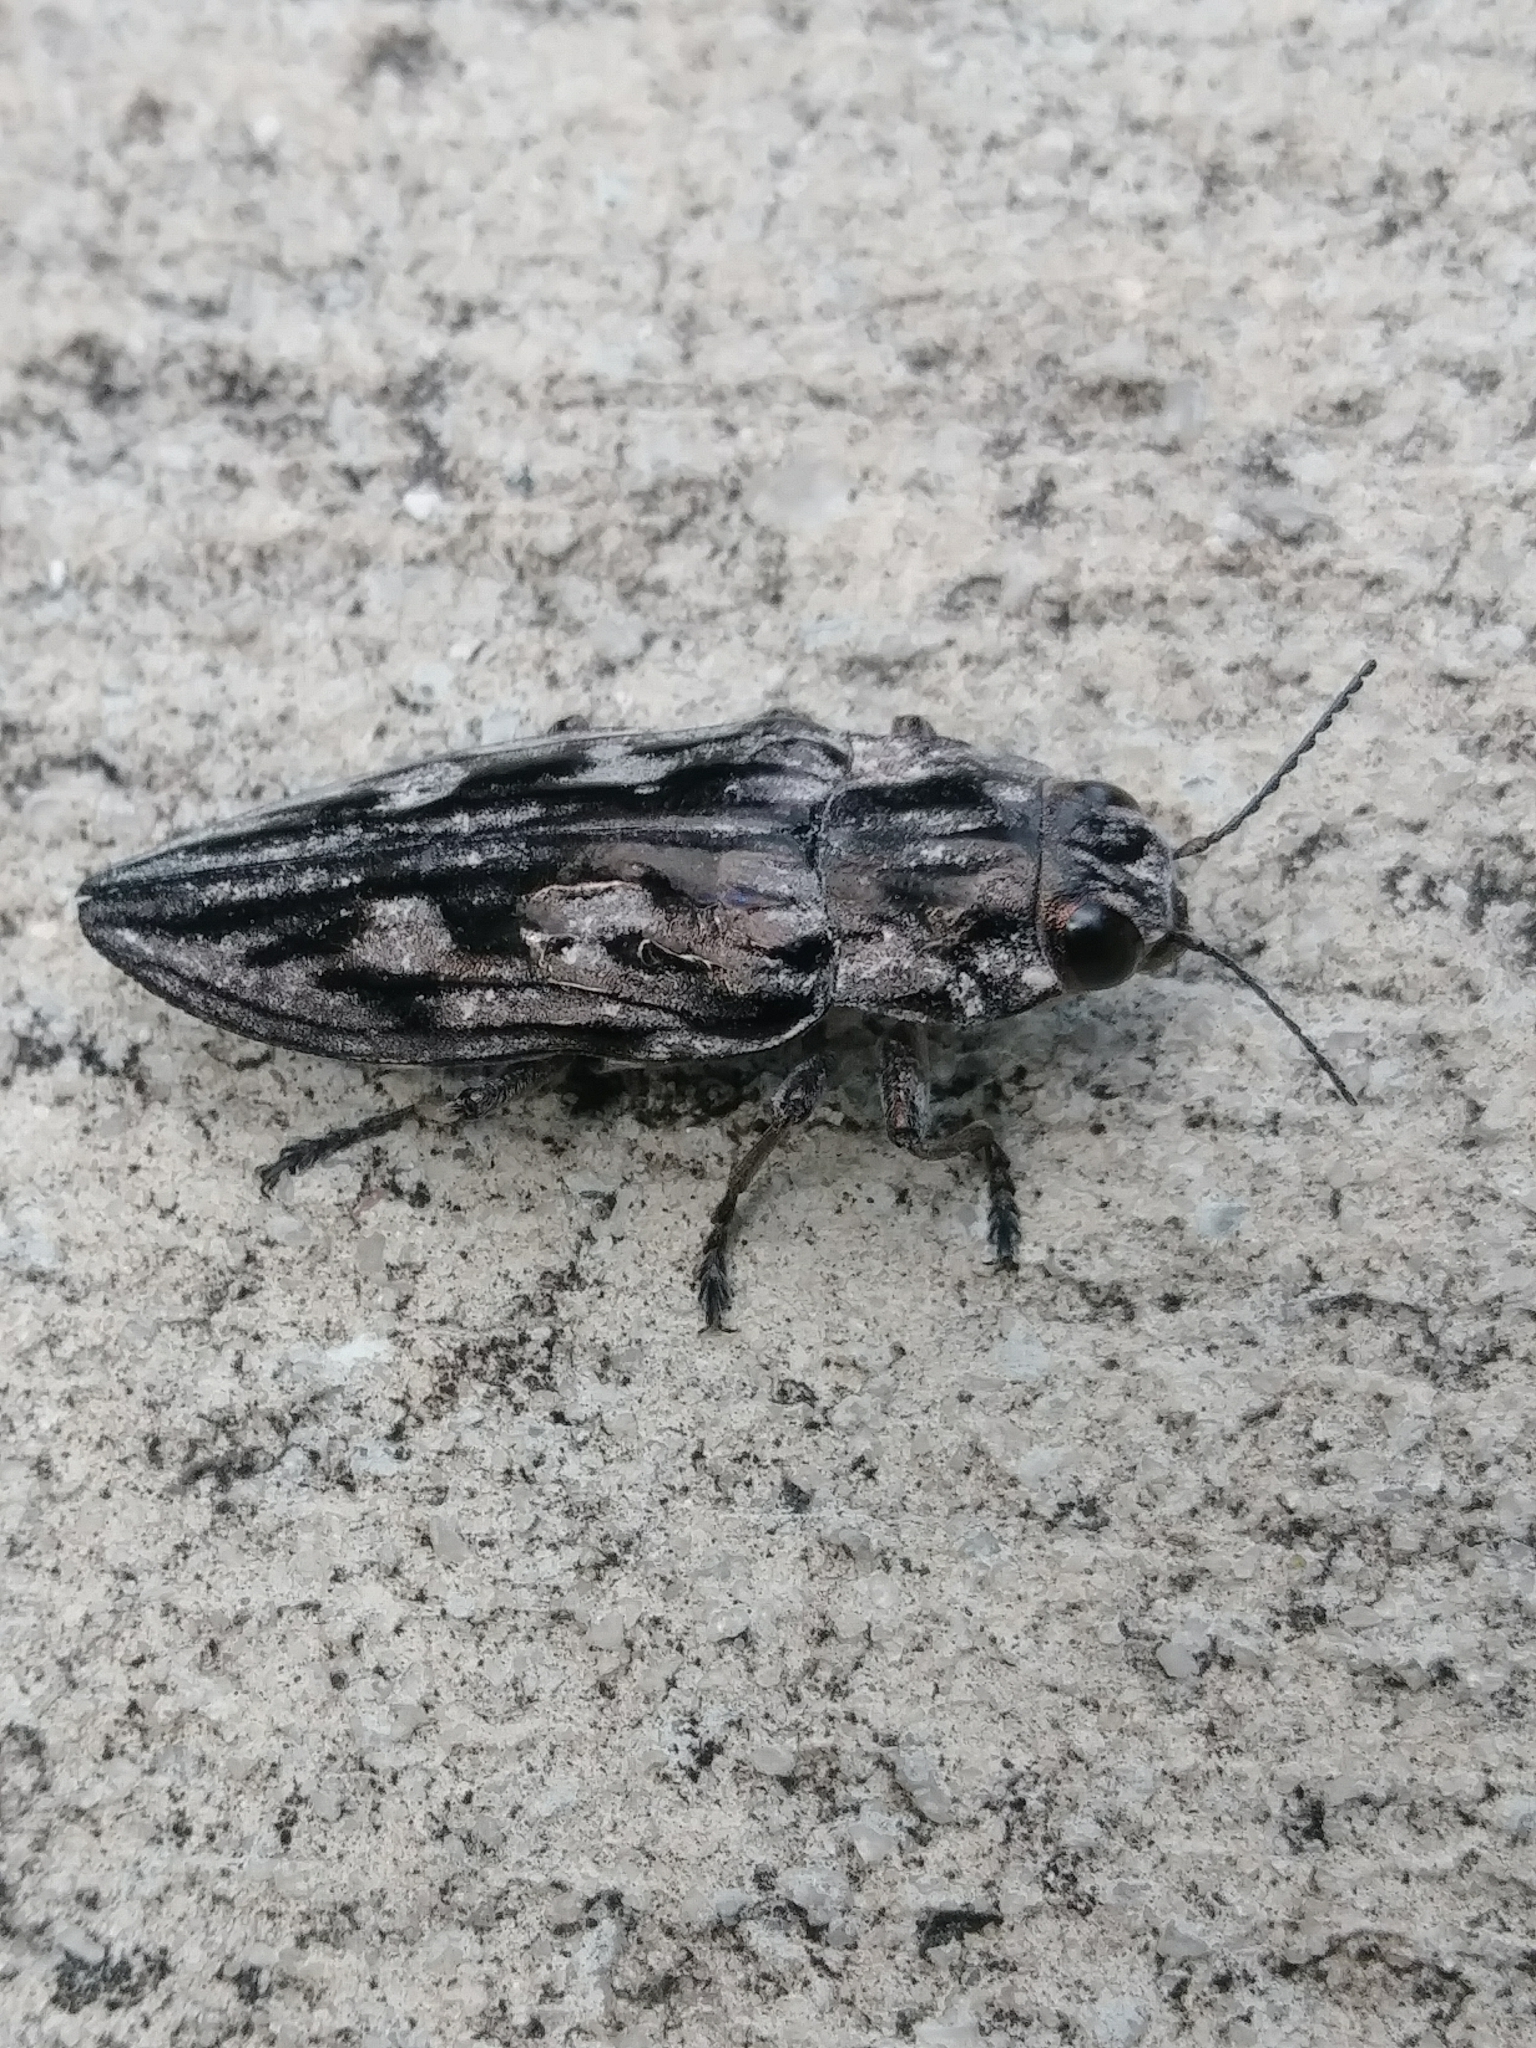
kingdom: Animalia
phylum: Arthropoda
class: Insecta
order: Coleoptera
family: Buprestidae
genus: Chalcophora
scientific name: Chalcophora virginiensis
